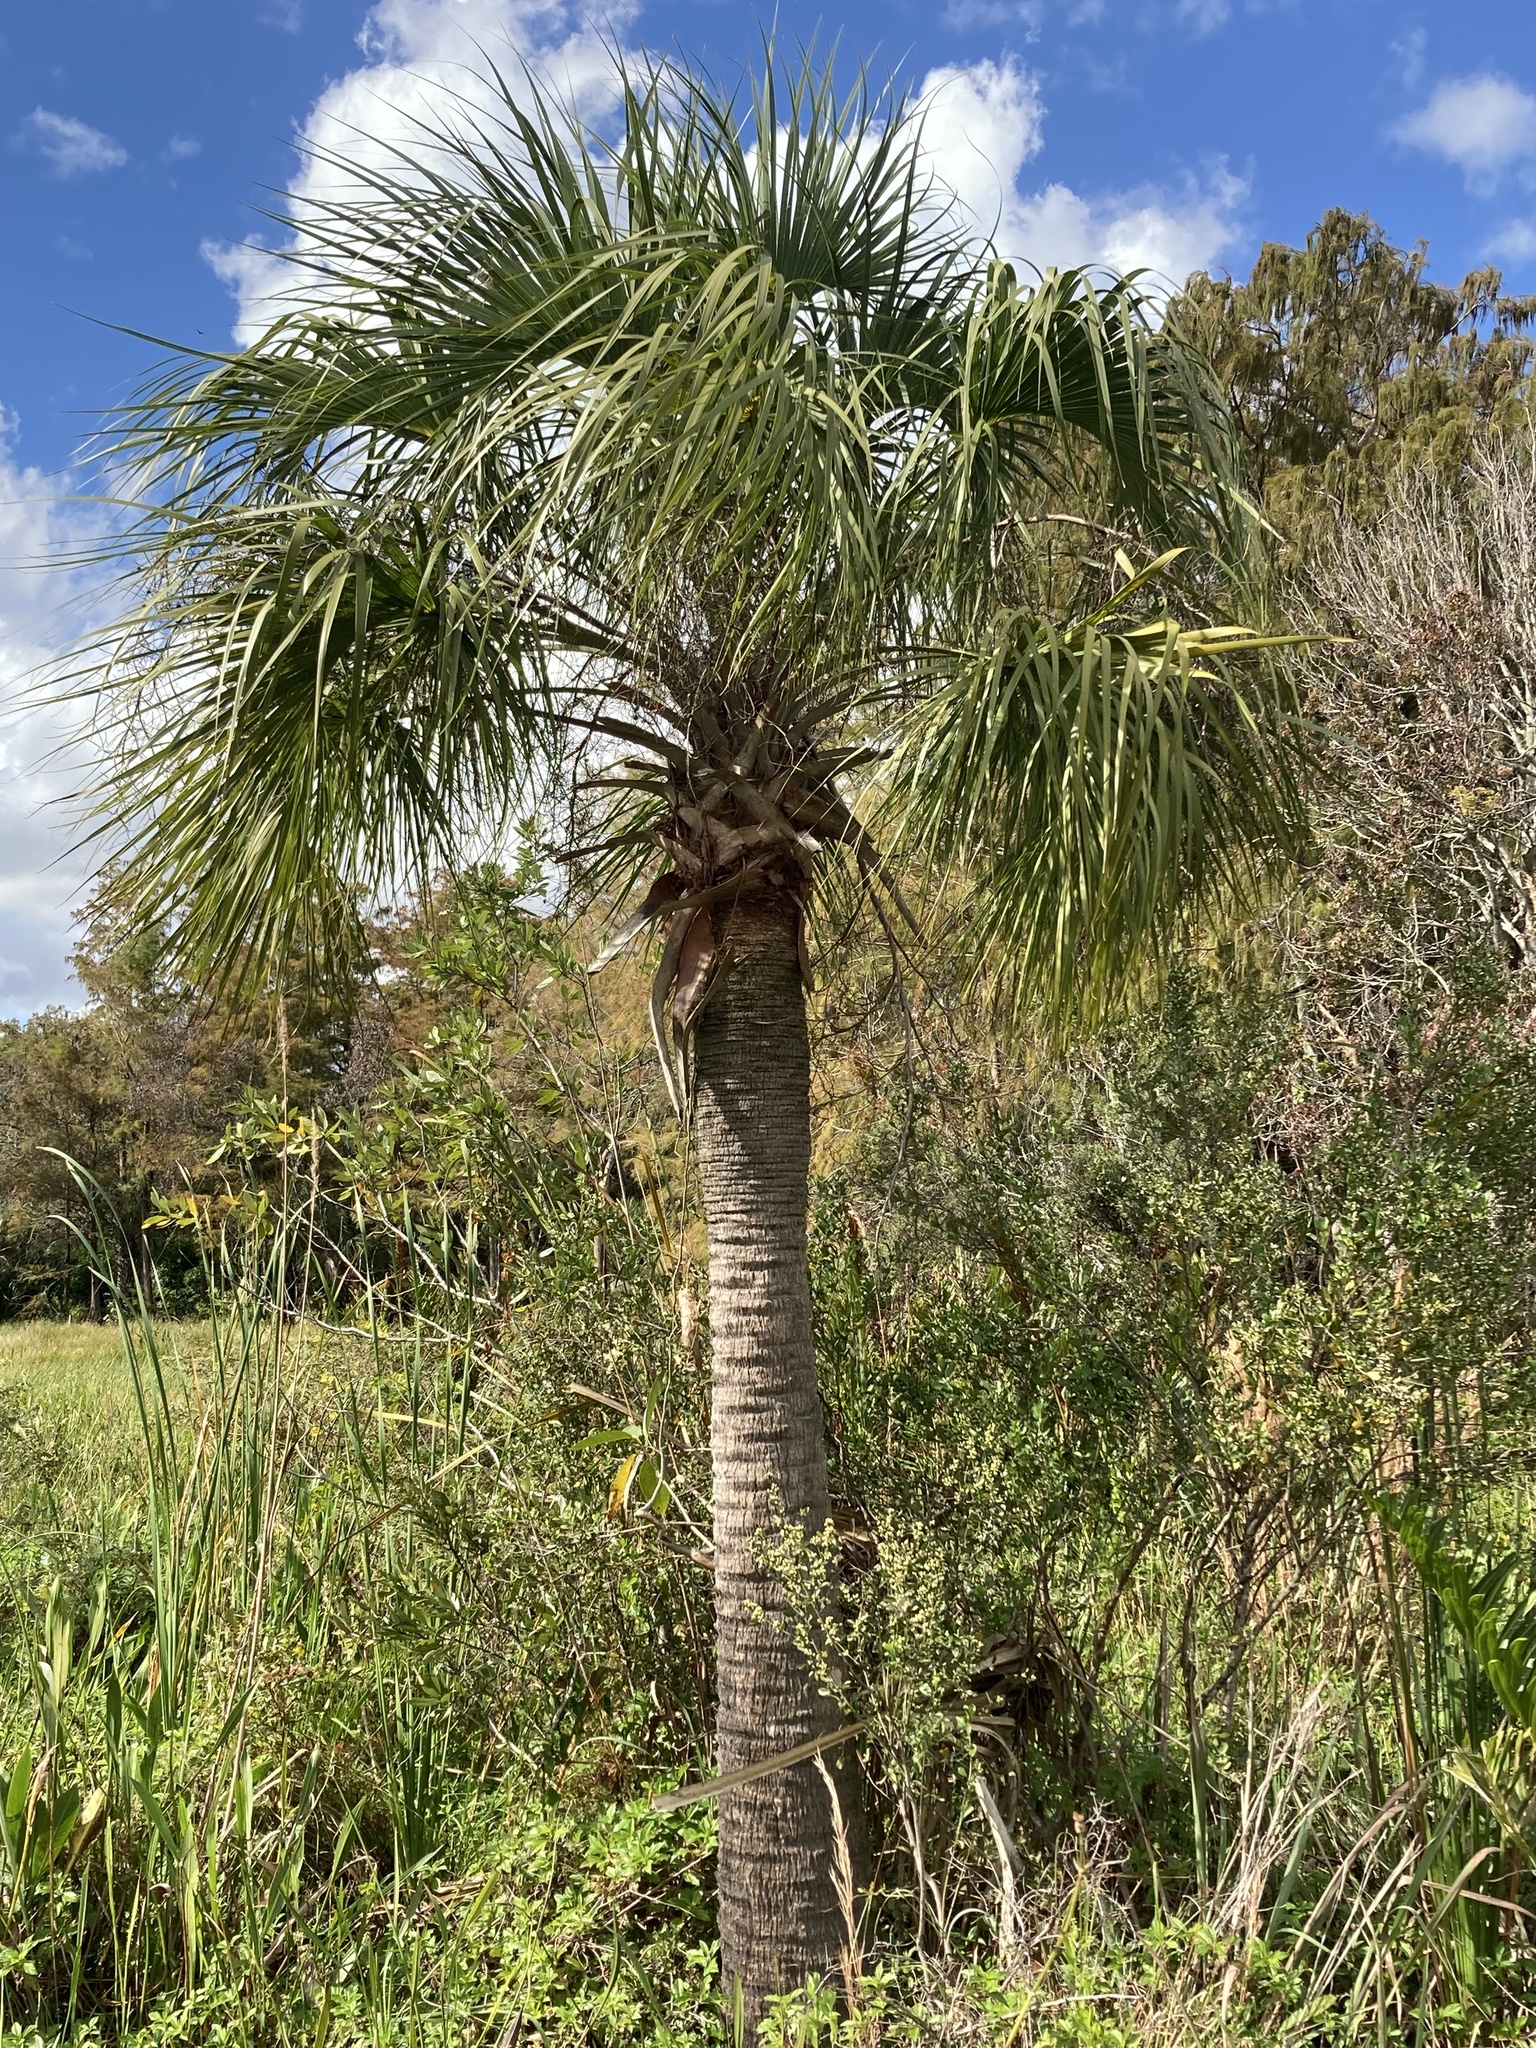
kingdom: Plantae
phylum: Tracheophyta
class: Liliopsida
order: Arecales
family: Arecaceae
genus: Sabal
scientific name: Sabal palmetto
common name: Blue palmetto
